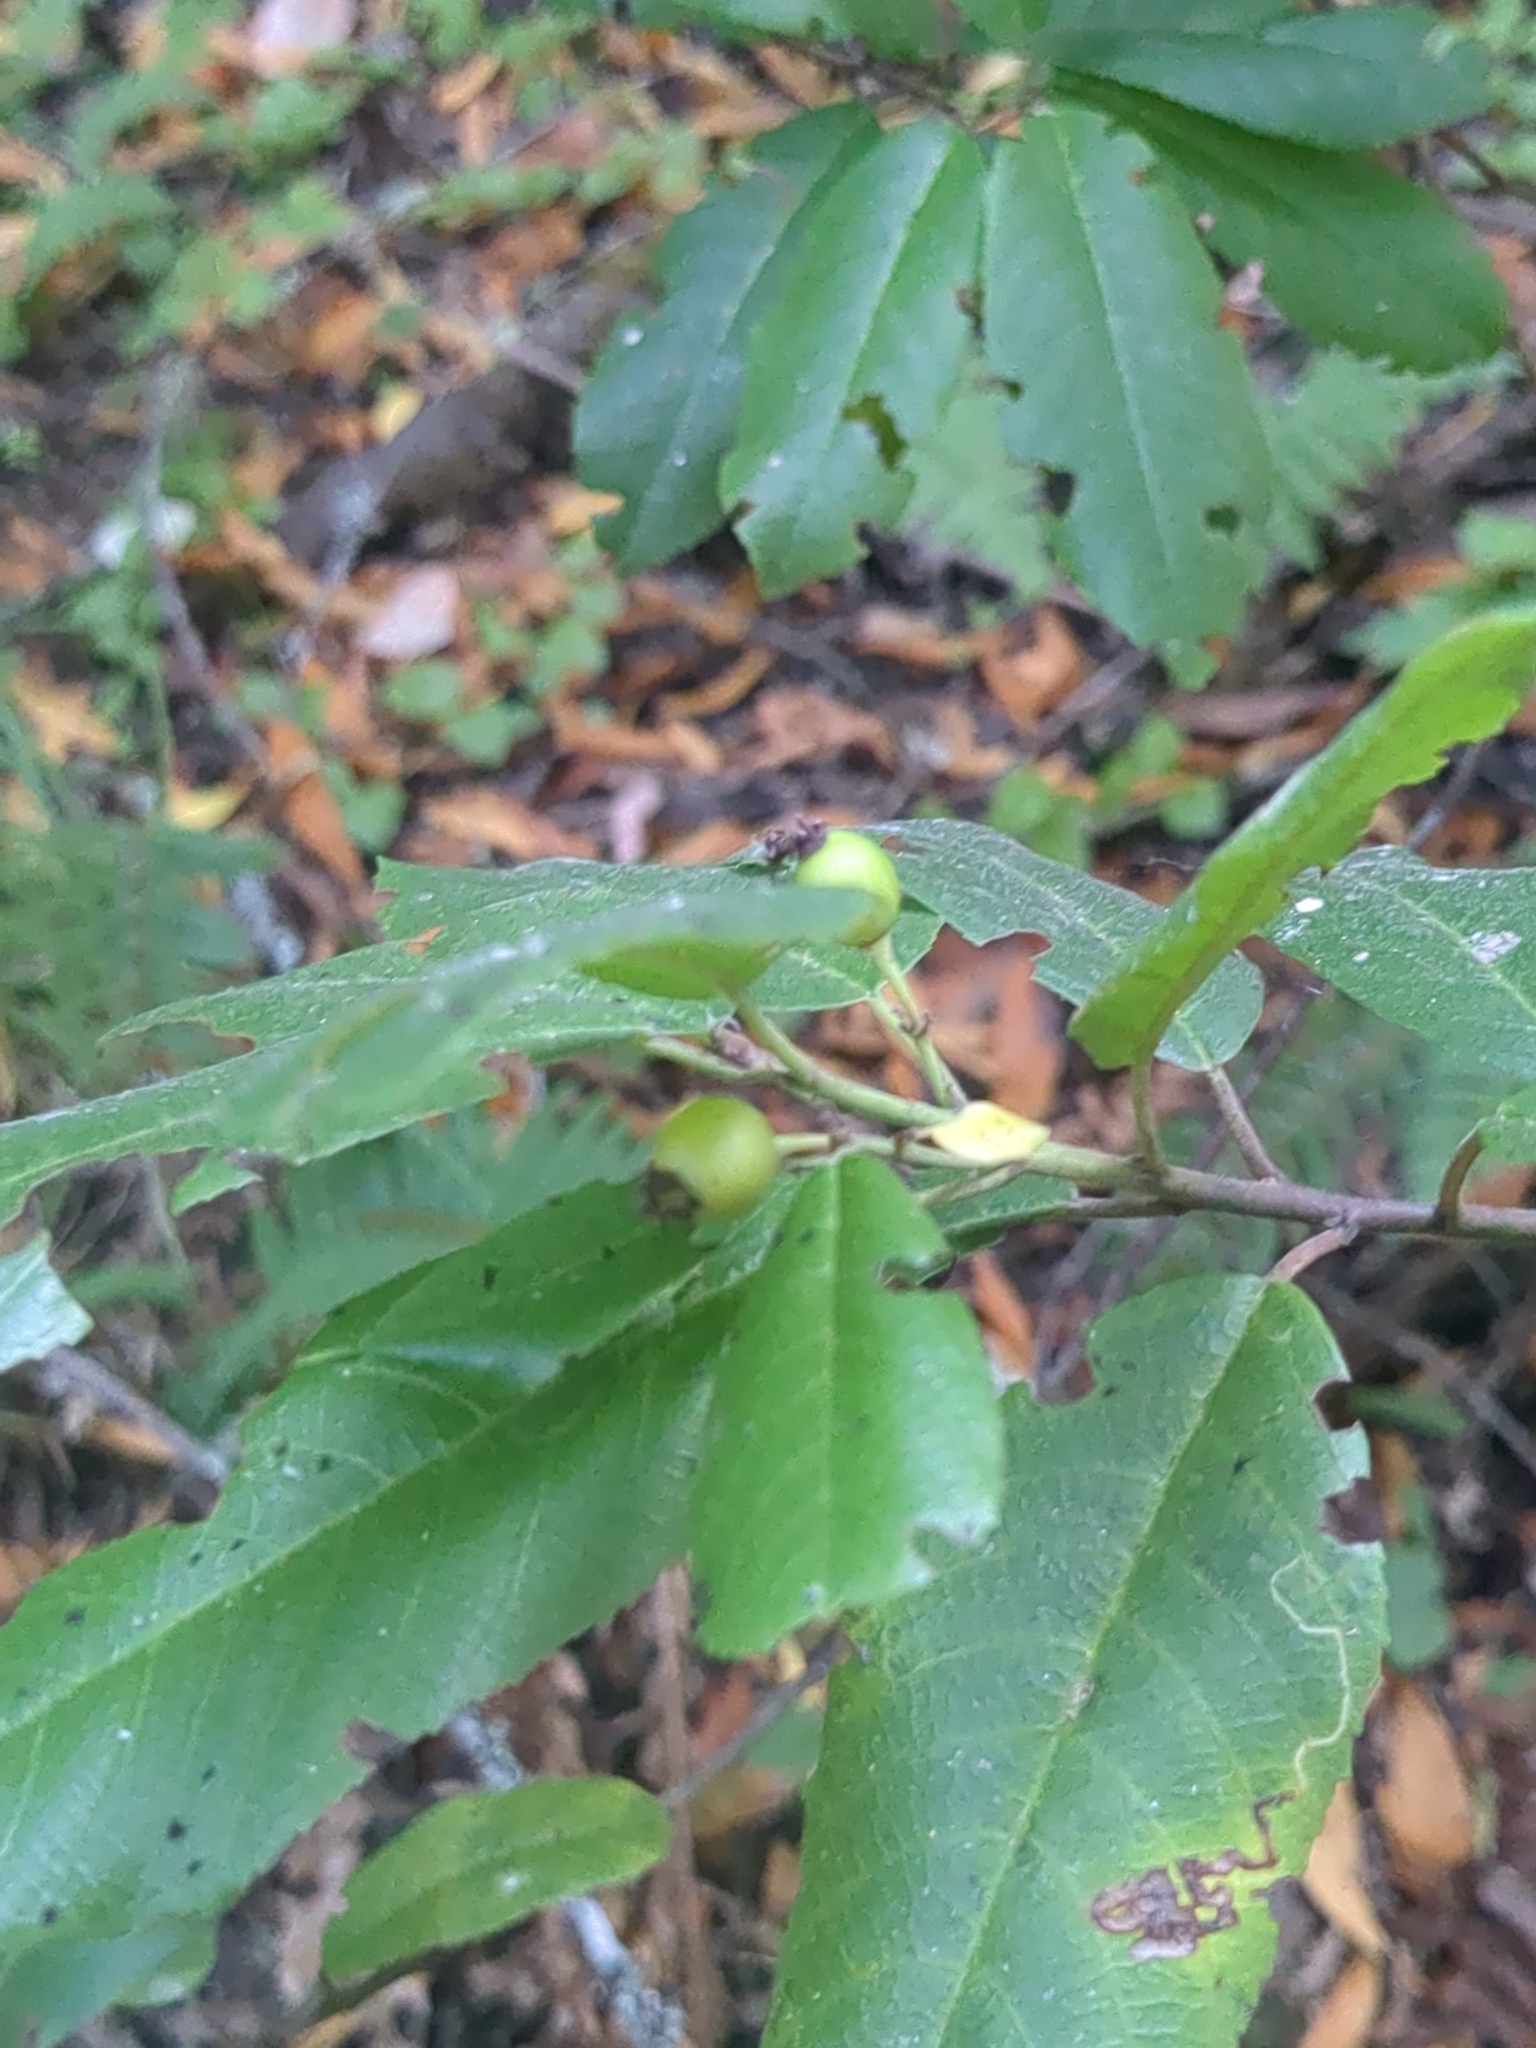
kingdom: Plantae
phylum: Tracheophyta
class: Magnoliopsida
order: Rosales
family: Rhamnaceae
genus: Frangula
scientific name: Frangula californica
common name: California buckthorn
